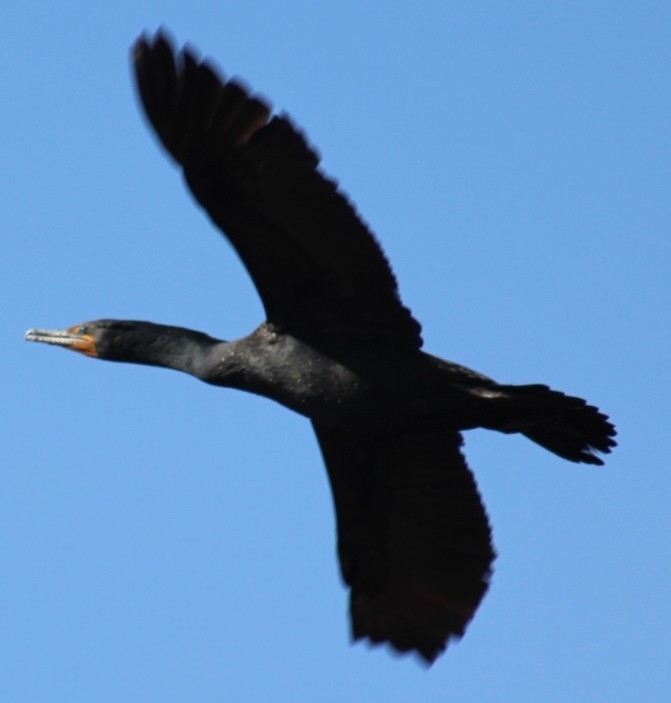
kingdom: Animalia
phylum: Chordata
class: Aves
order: Suliformes
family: Phalacrocoracidae
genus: Phalacrocorax
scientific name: Phalacrocorax auritus
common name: Double-crested cormorant
